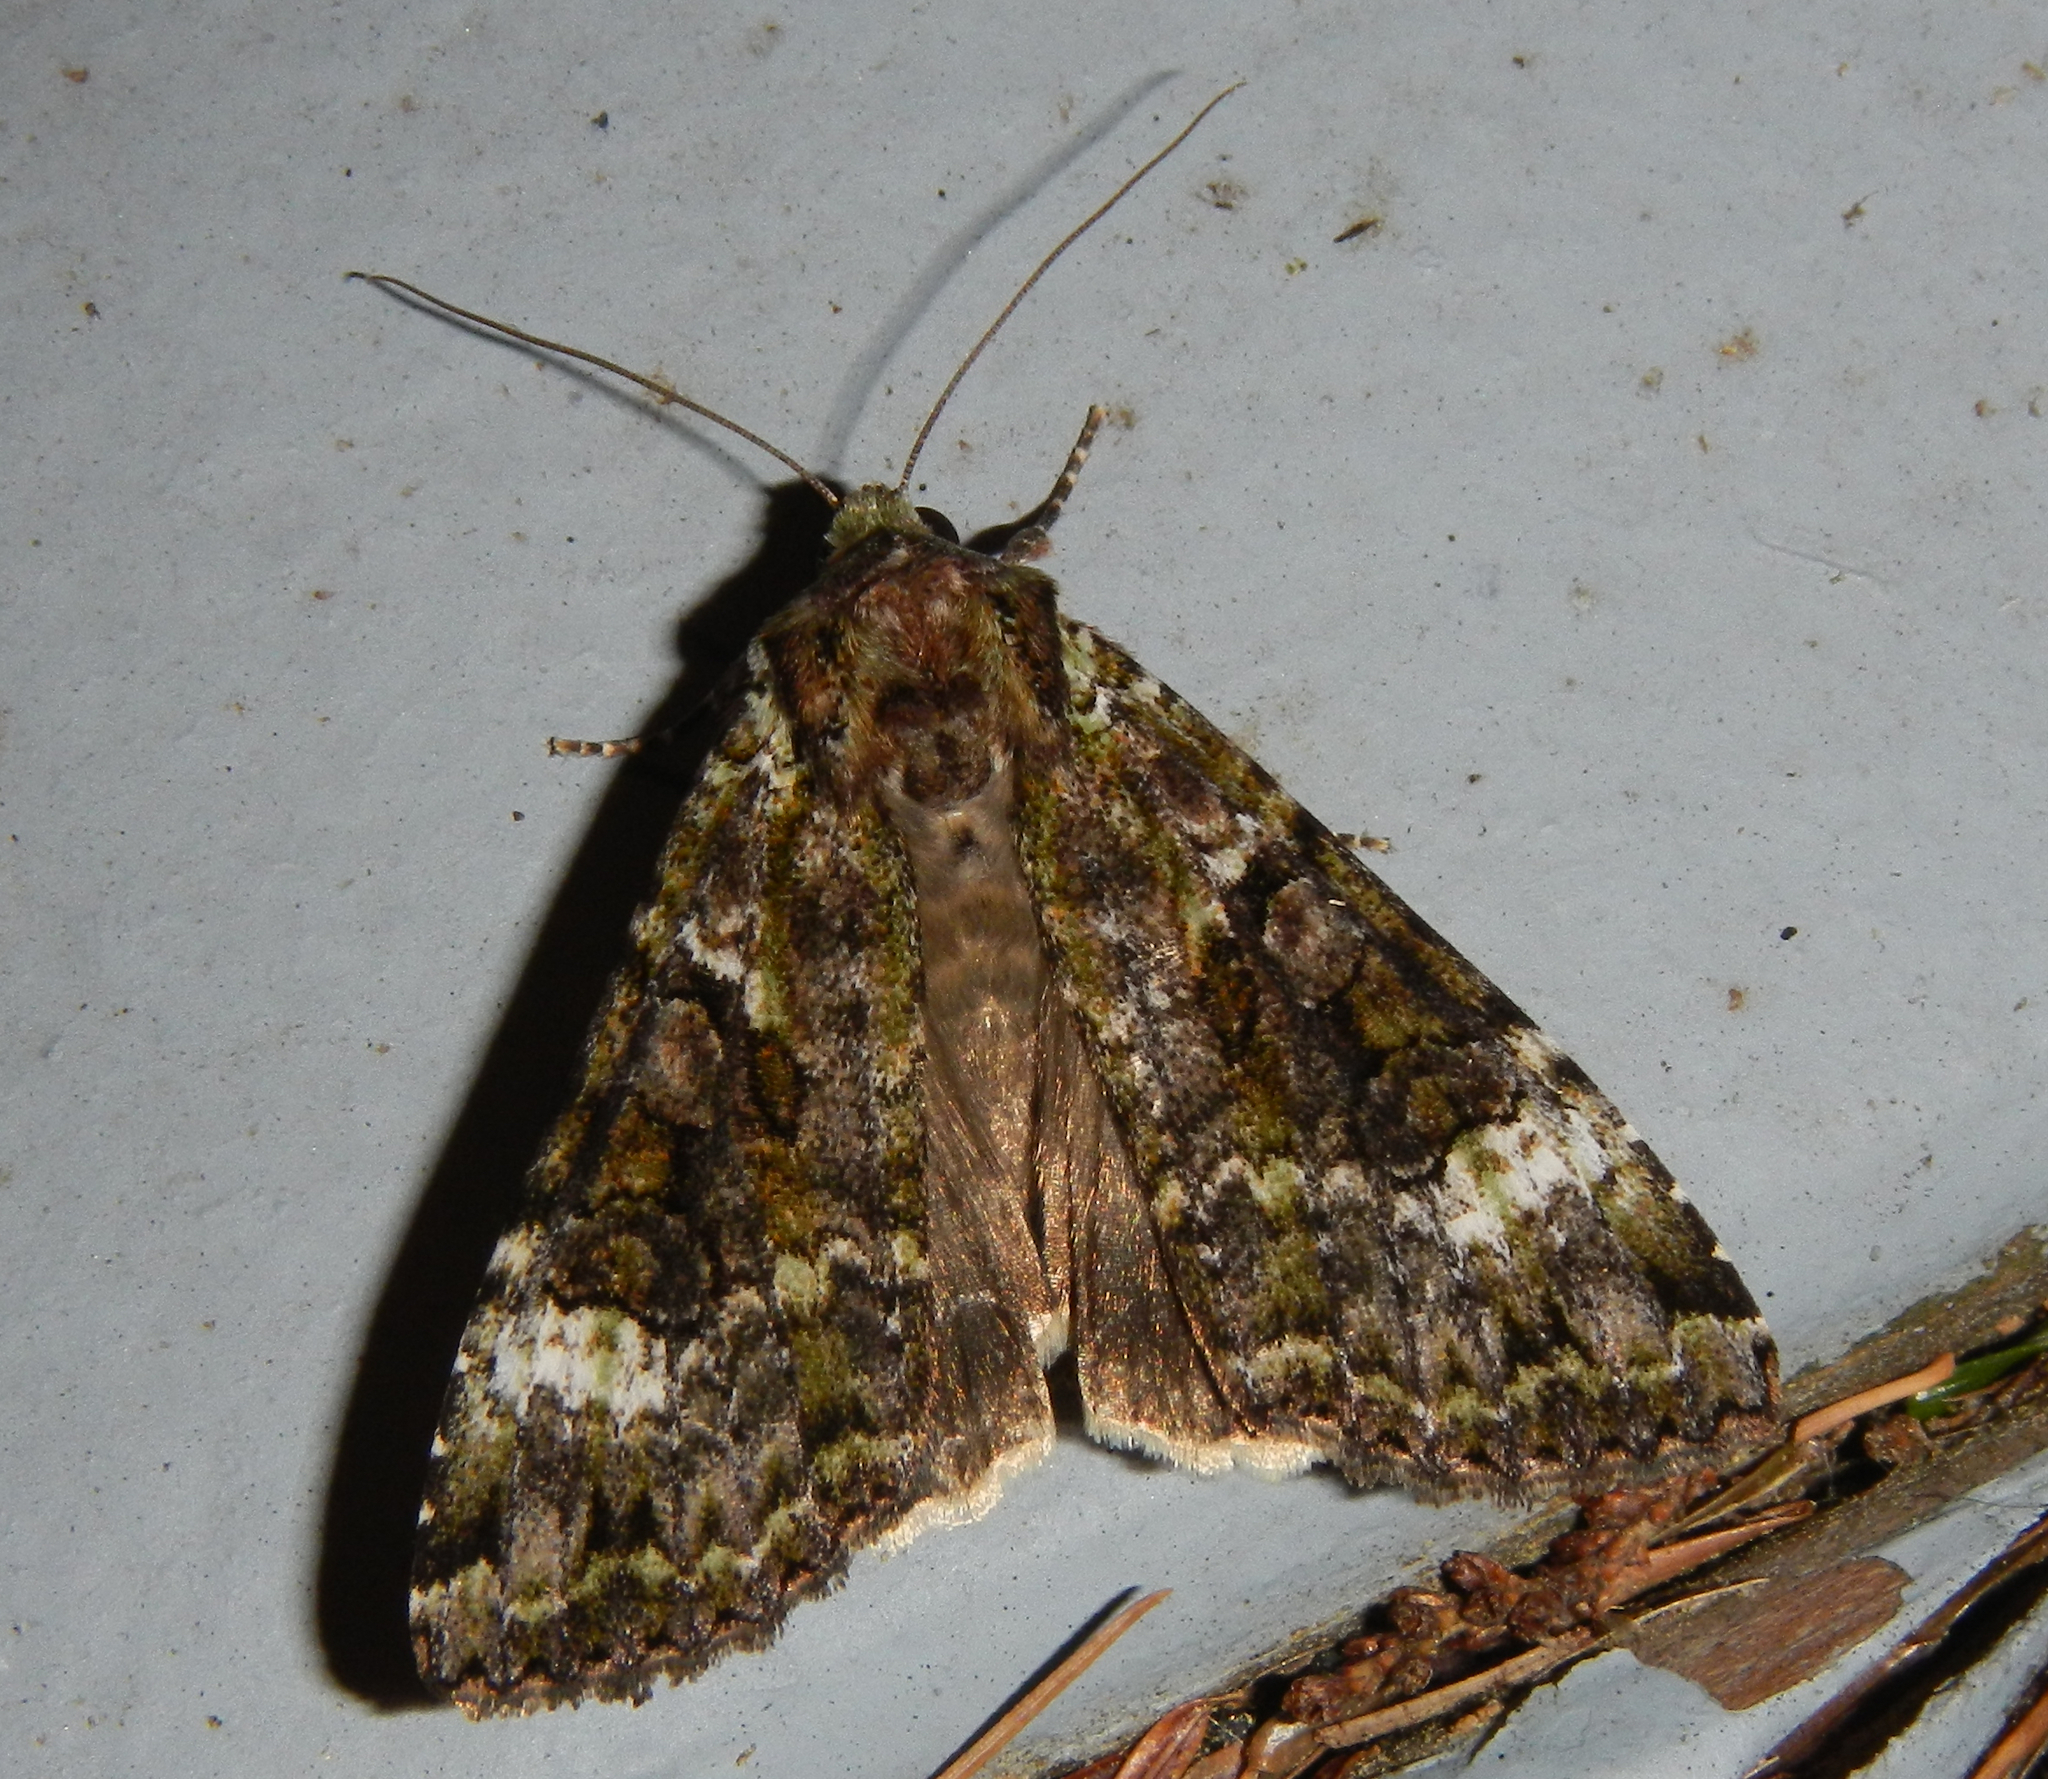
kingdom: Animalia
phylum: Arthropoda
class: Insecta
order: Lepidoptera
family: Noctuidae
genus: Anaplectoides
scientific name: Anaplectoides prasina
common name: Green arches
